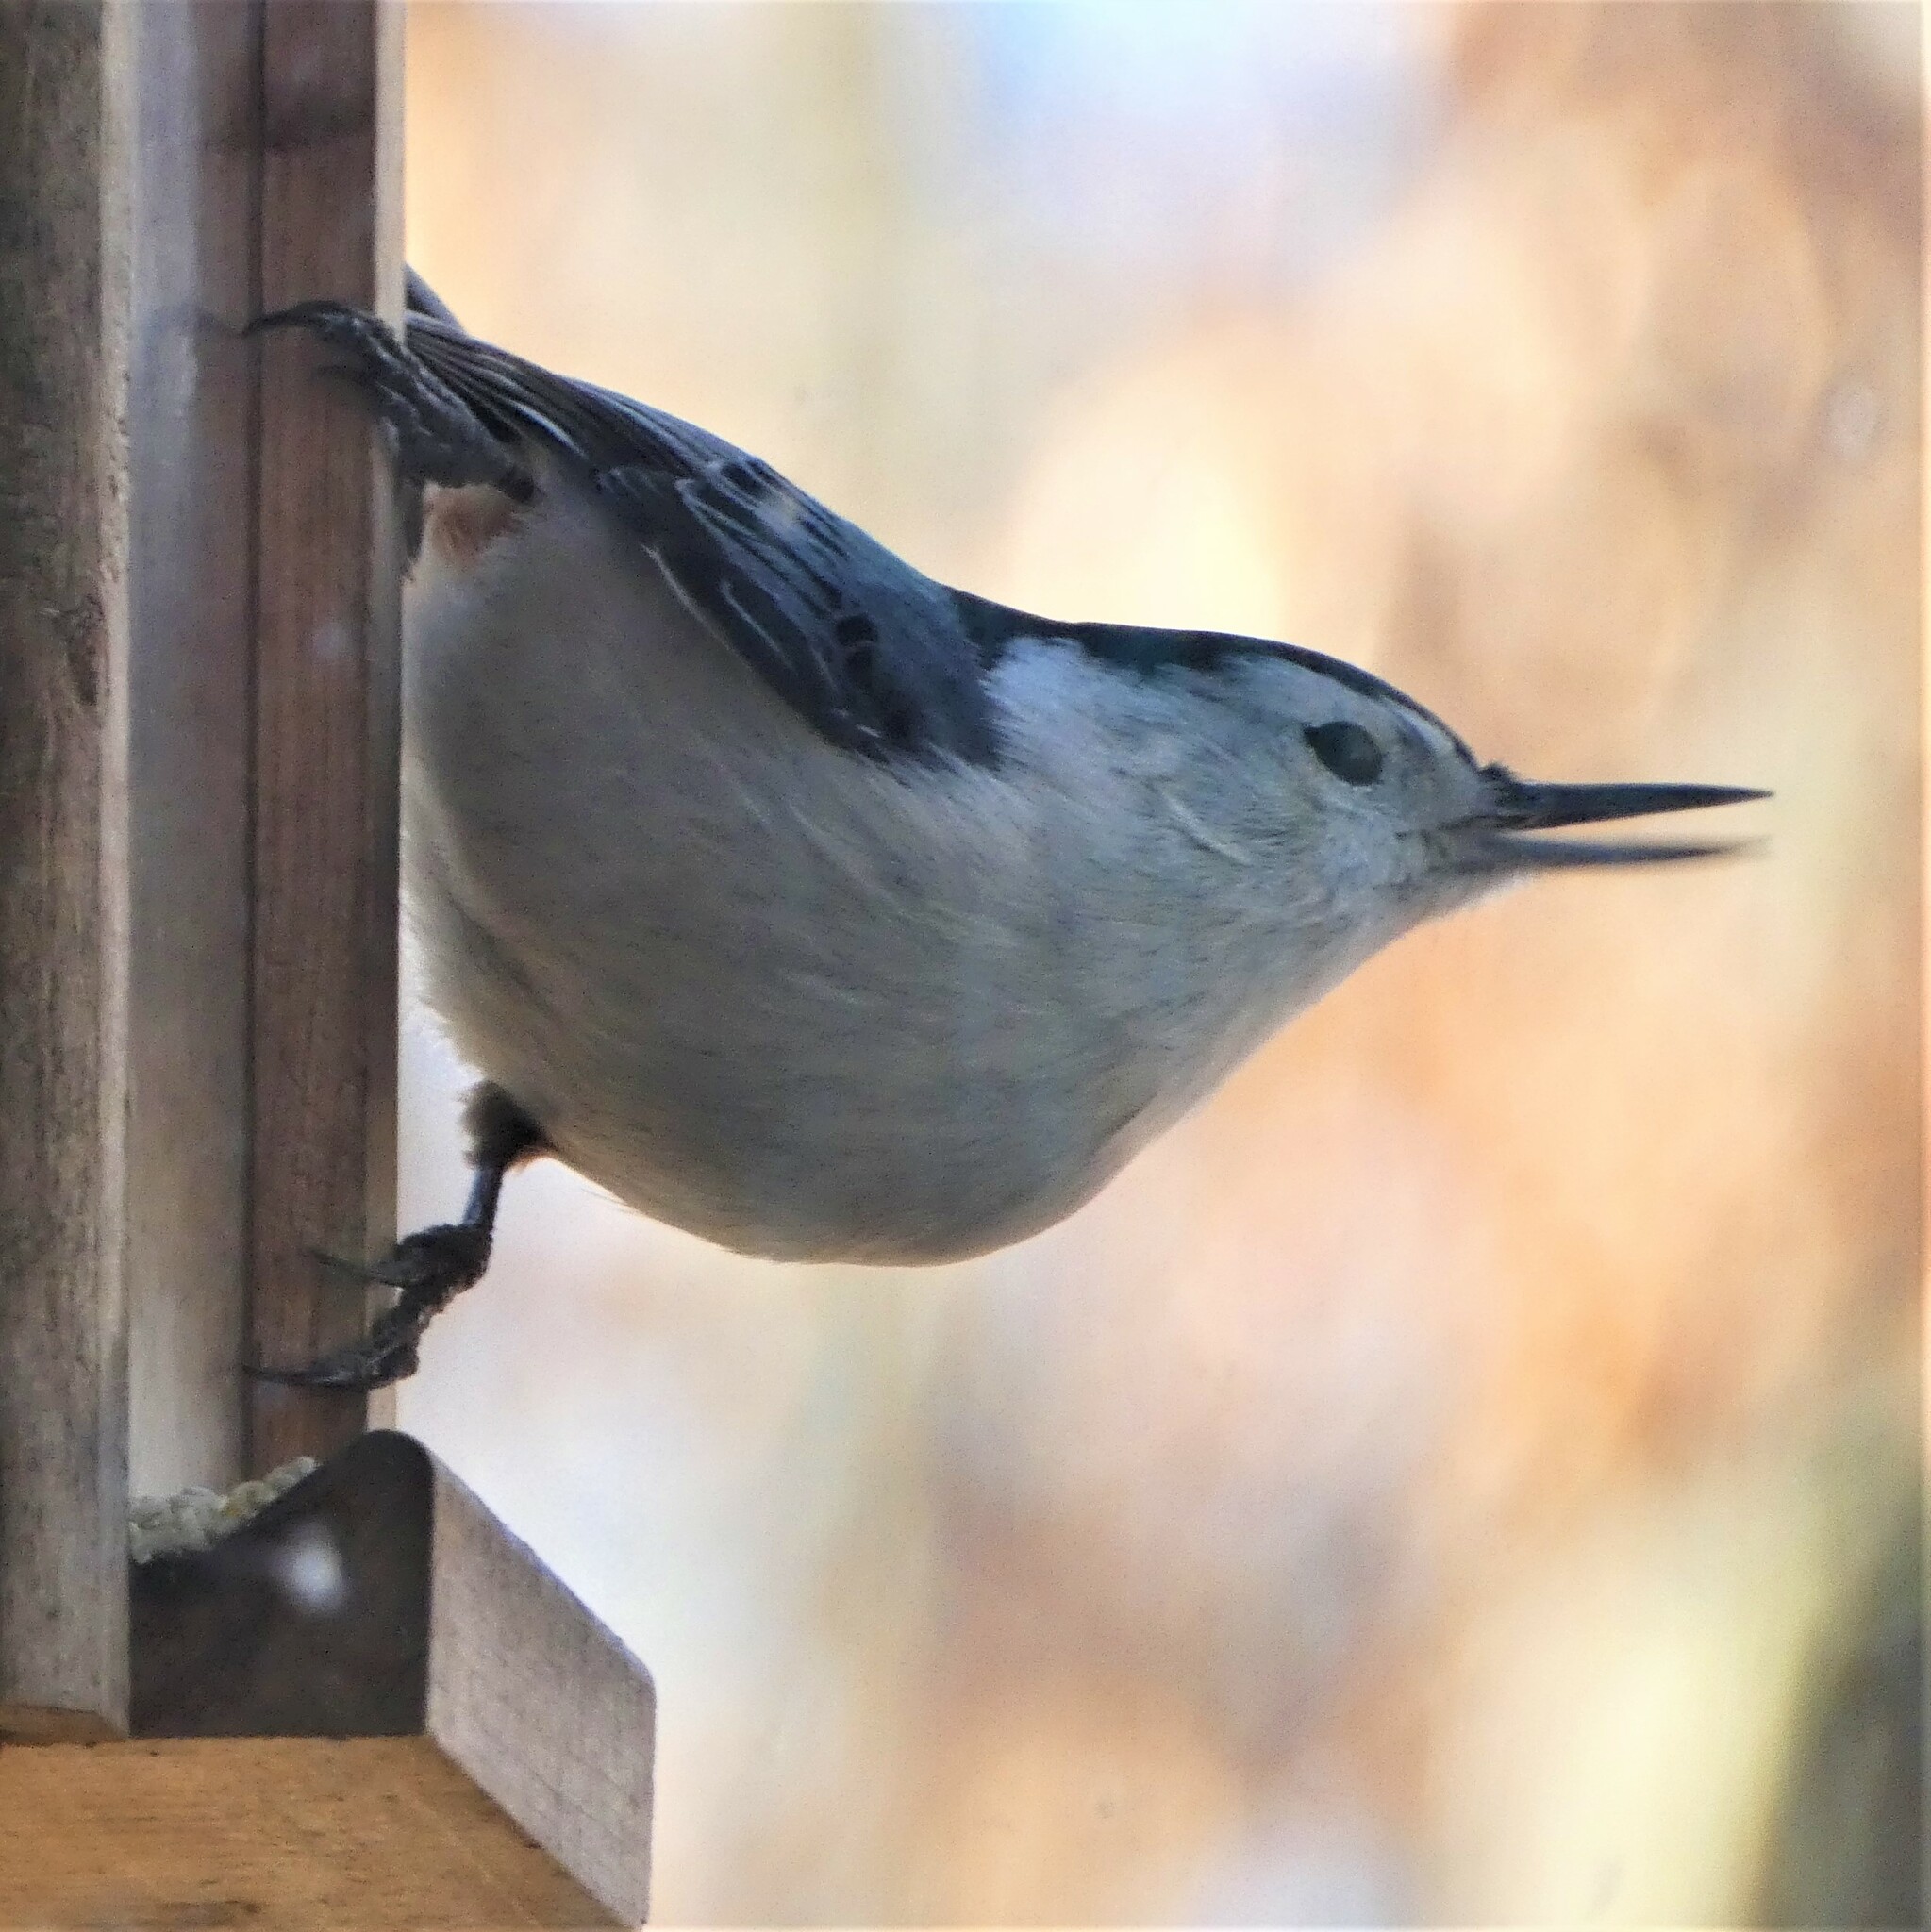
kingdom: Animalia
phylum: Chordata
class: Aves
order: Passeriformes
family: Sittidae
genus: Sitta
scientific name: Sitta carolinensis
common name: White-breasted nuthatch
